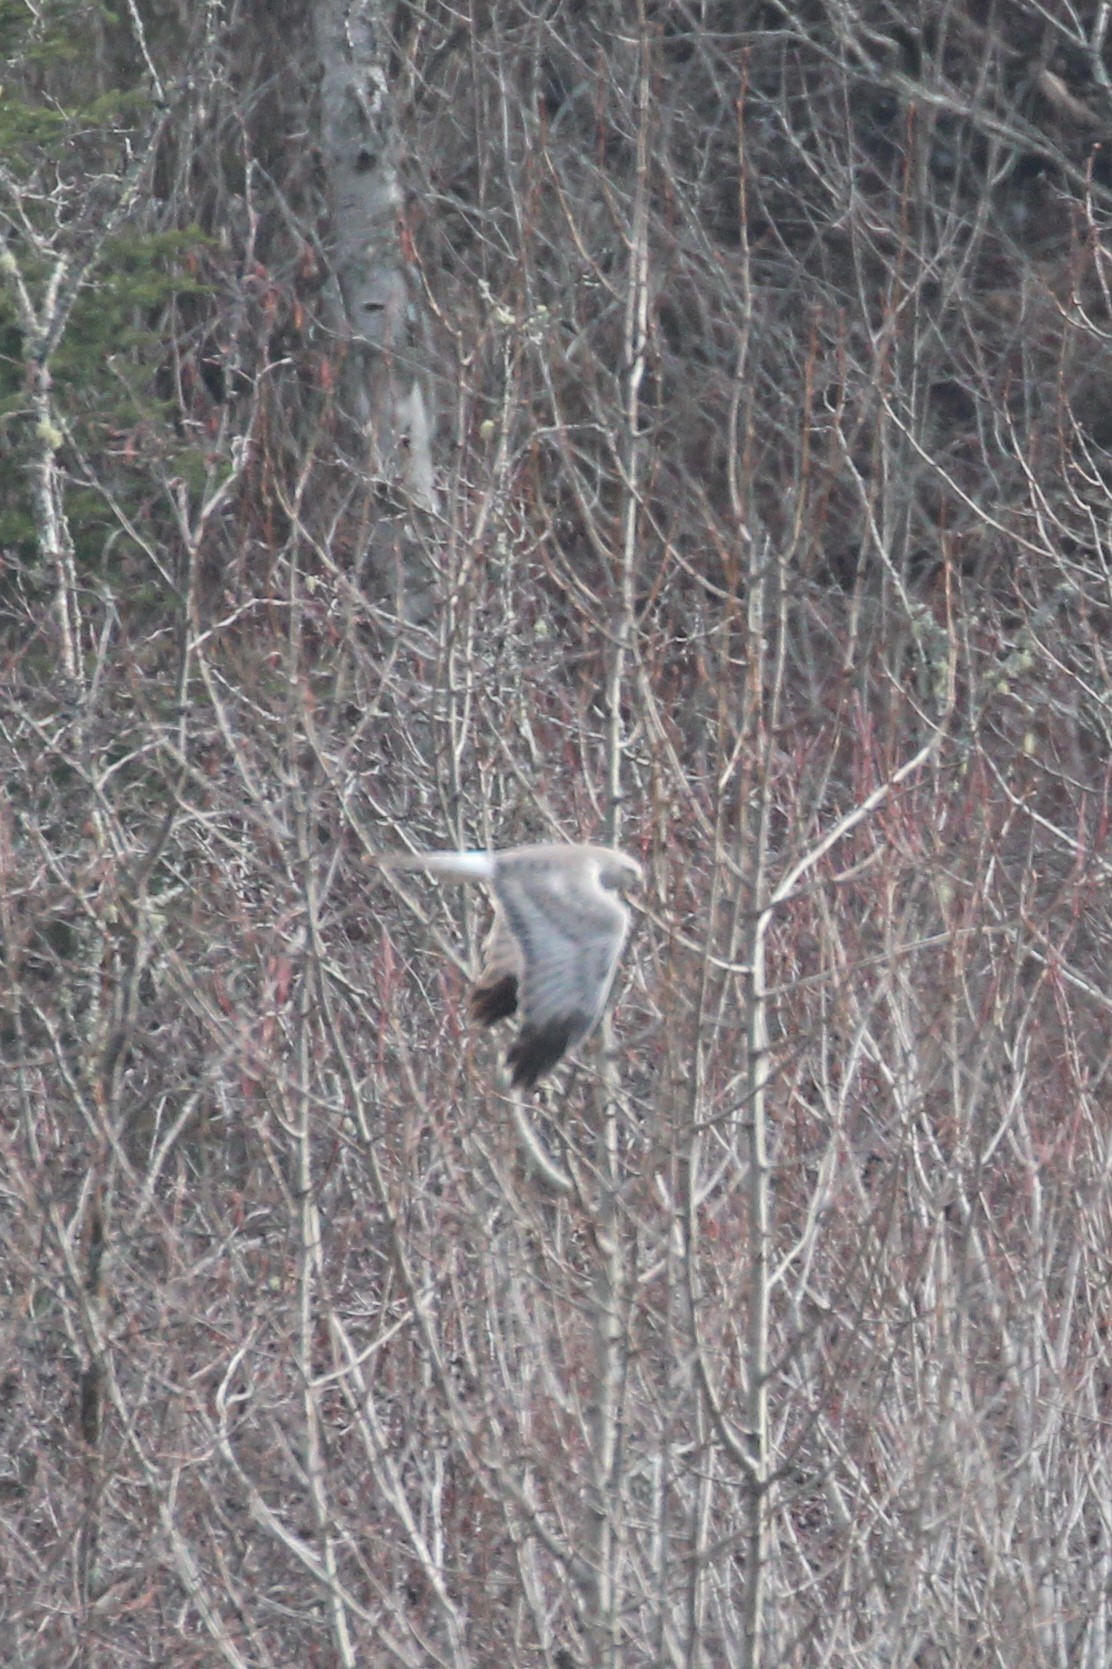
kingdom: Animalia
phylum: Chordata
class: Aves
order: Accipitriformes
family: Accipitridae
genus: Circus
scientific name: Circus cyaneus
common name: Hen harrier
